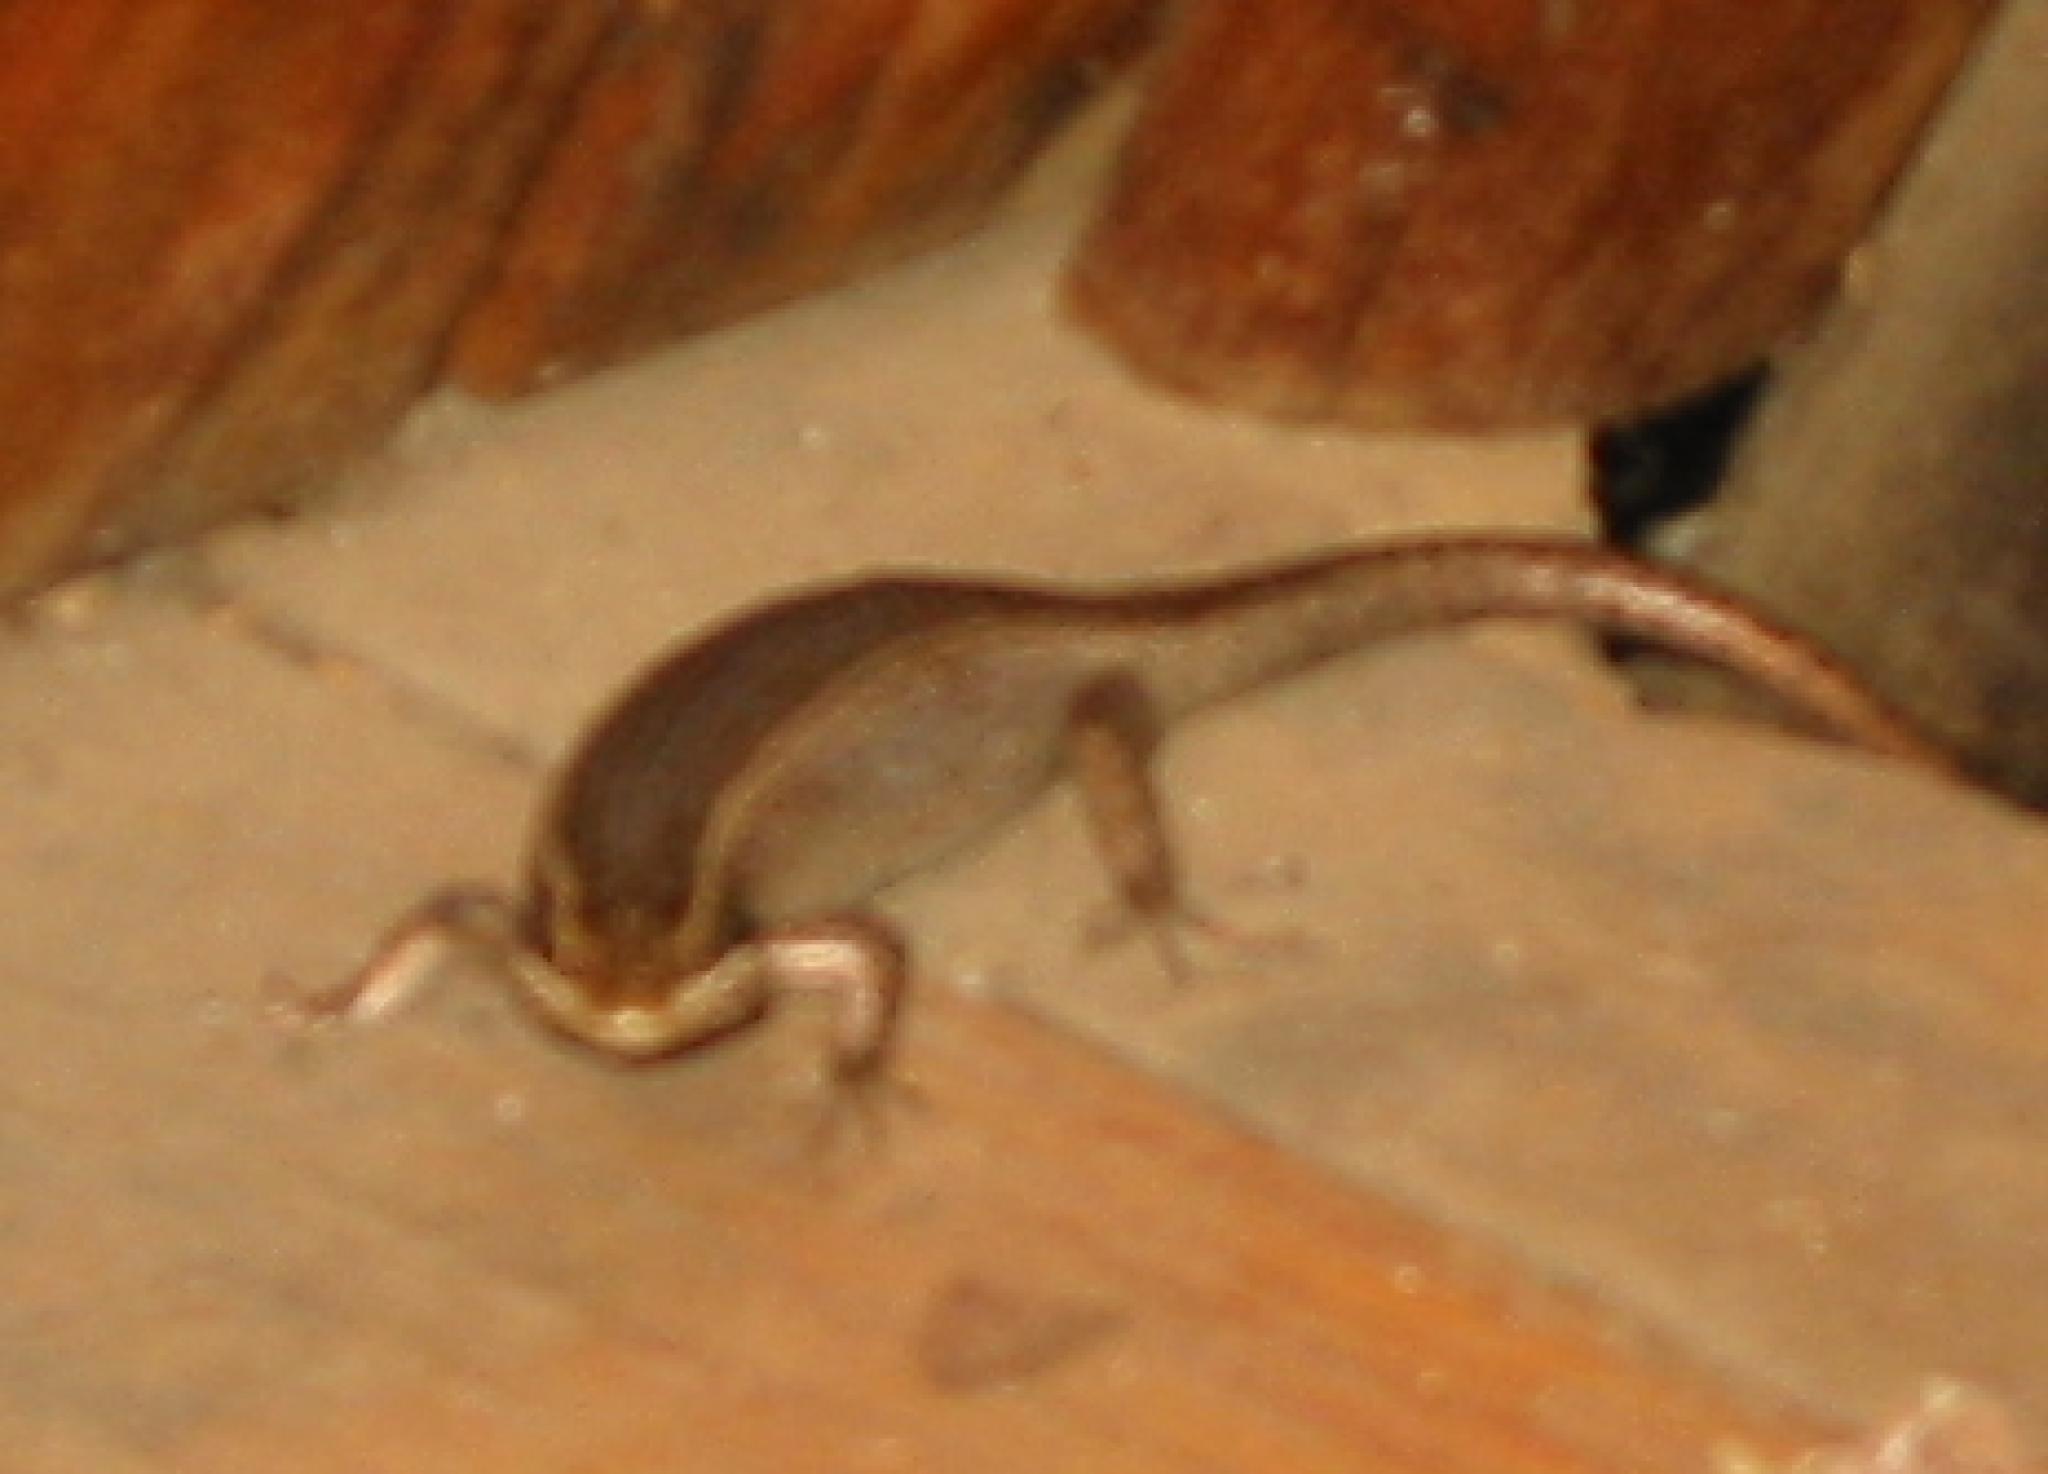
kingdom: Animalia
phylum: Chordata
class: Squamata
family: Scincidae
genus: Trachylepis
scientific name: Trachylepis punctatissima
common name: Montane speckled skink
